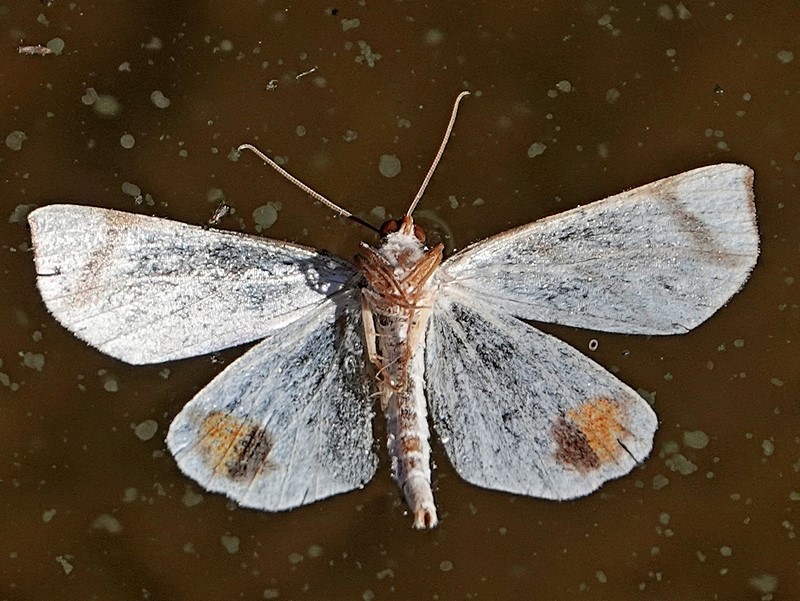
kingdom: Animalia
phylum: Arthropoda
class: Insecta
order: Lepidoptera
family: Geometridae
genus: Thalaina
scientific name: Thalaina clara
